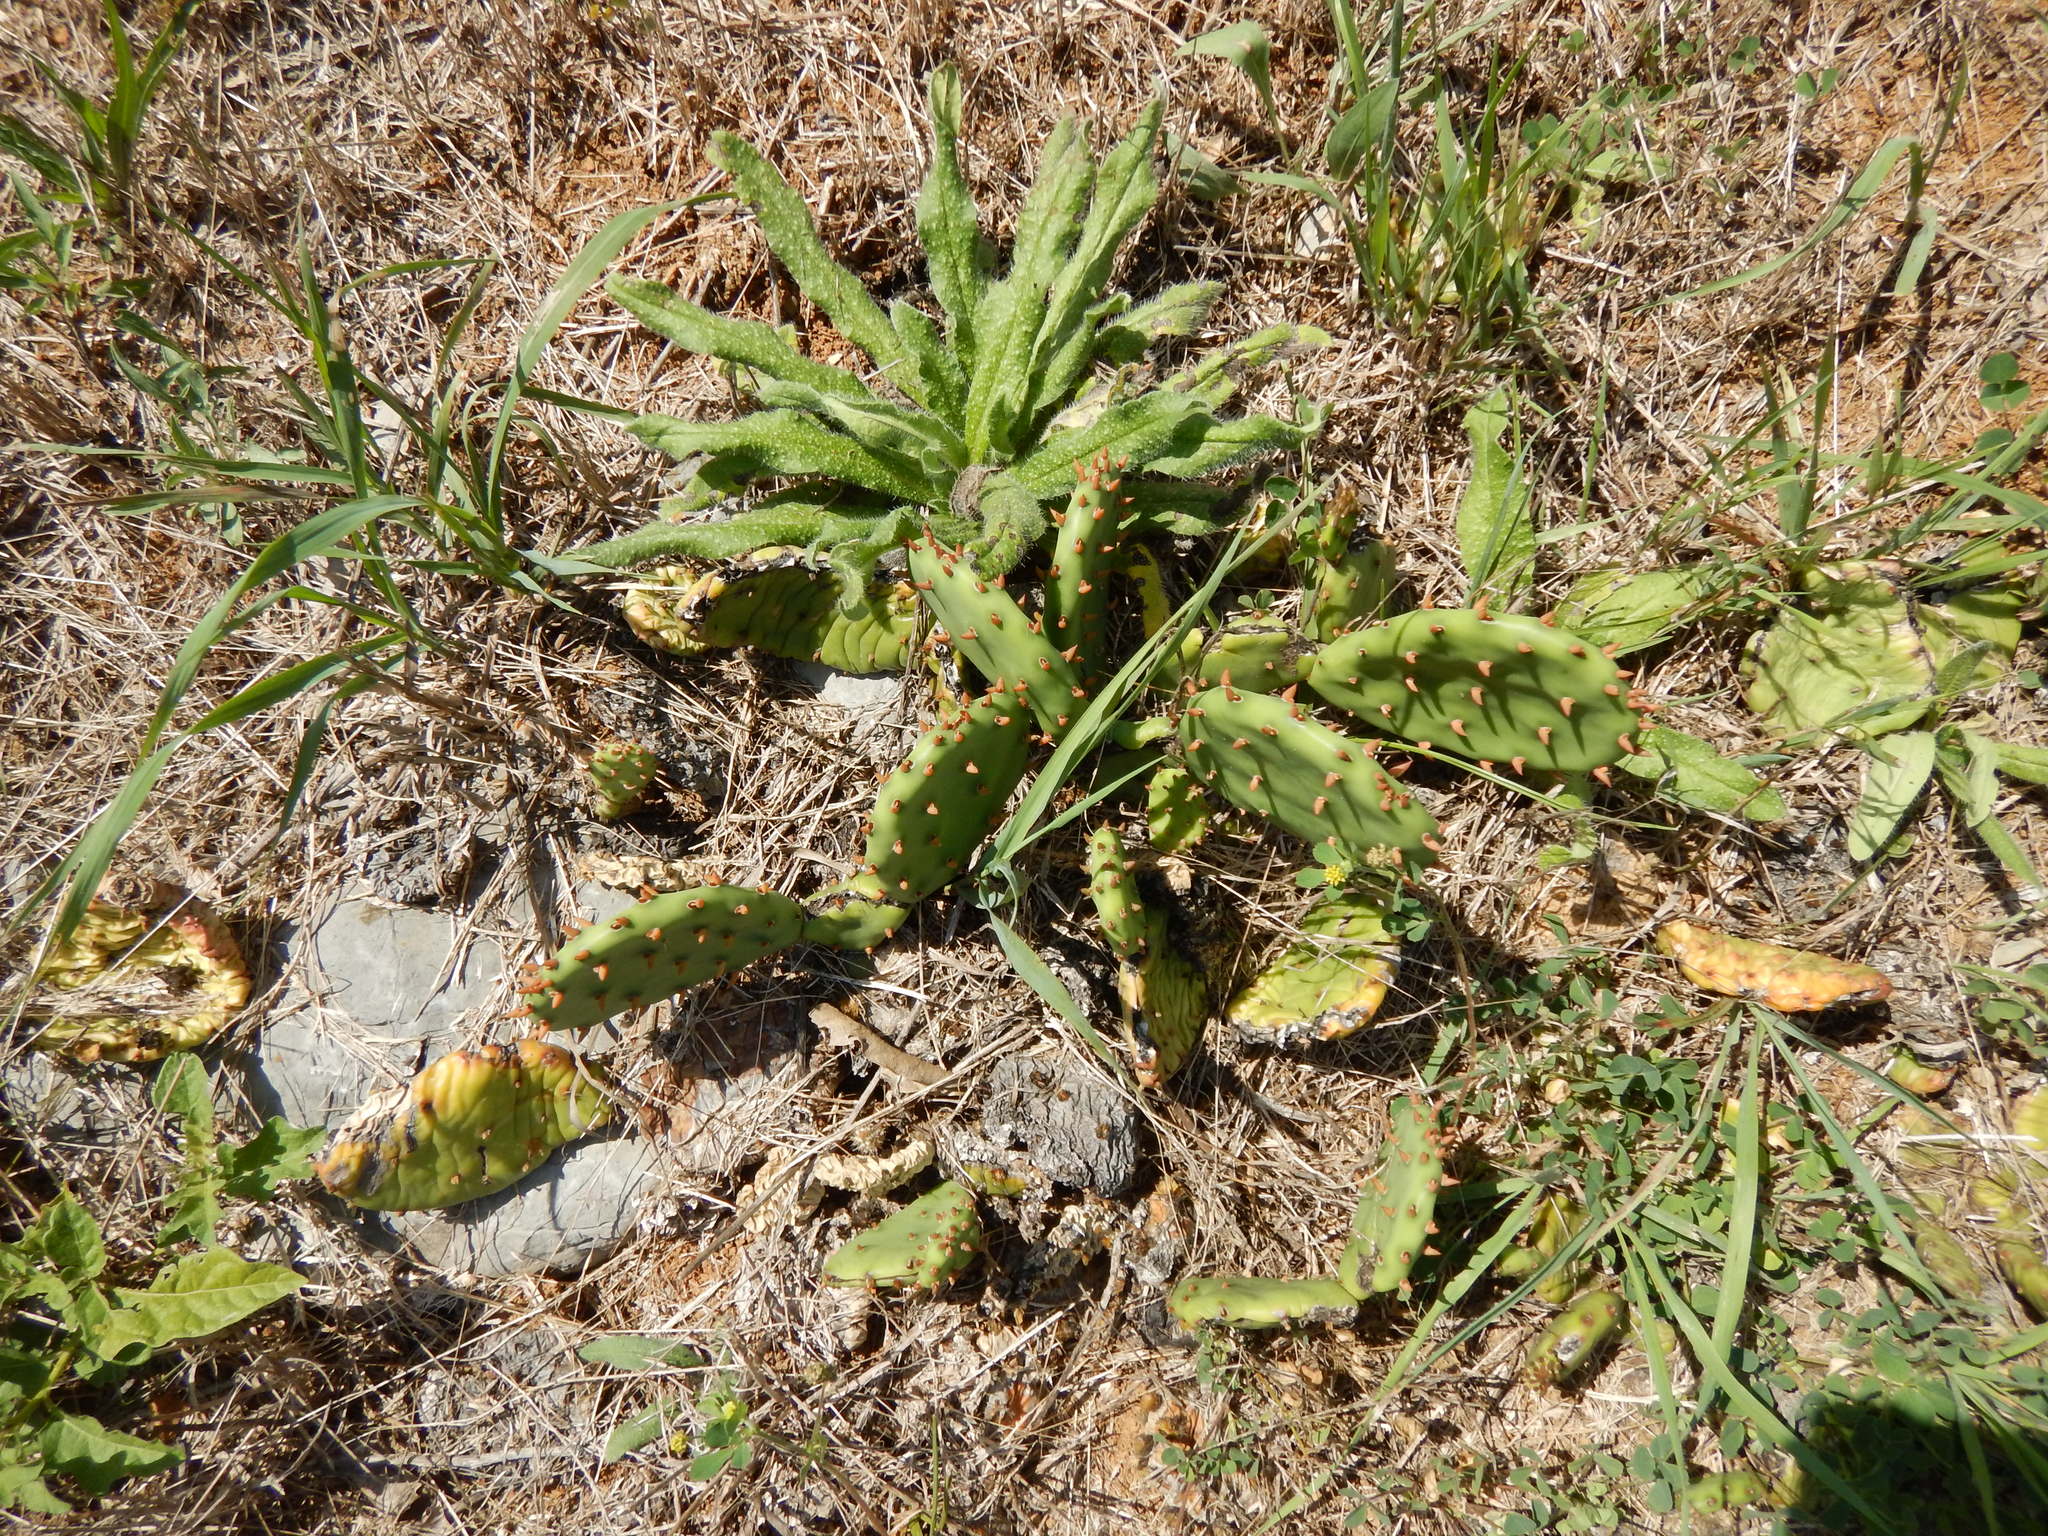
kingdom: Plantae
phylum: Tracheophyta
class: Magnoliopsida
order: Caryophyllales
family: Cactaceae
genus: Opuntia
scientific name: Opuntia humifusa
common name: Eastern prickly-pear
